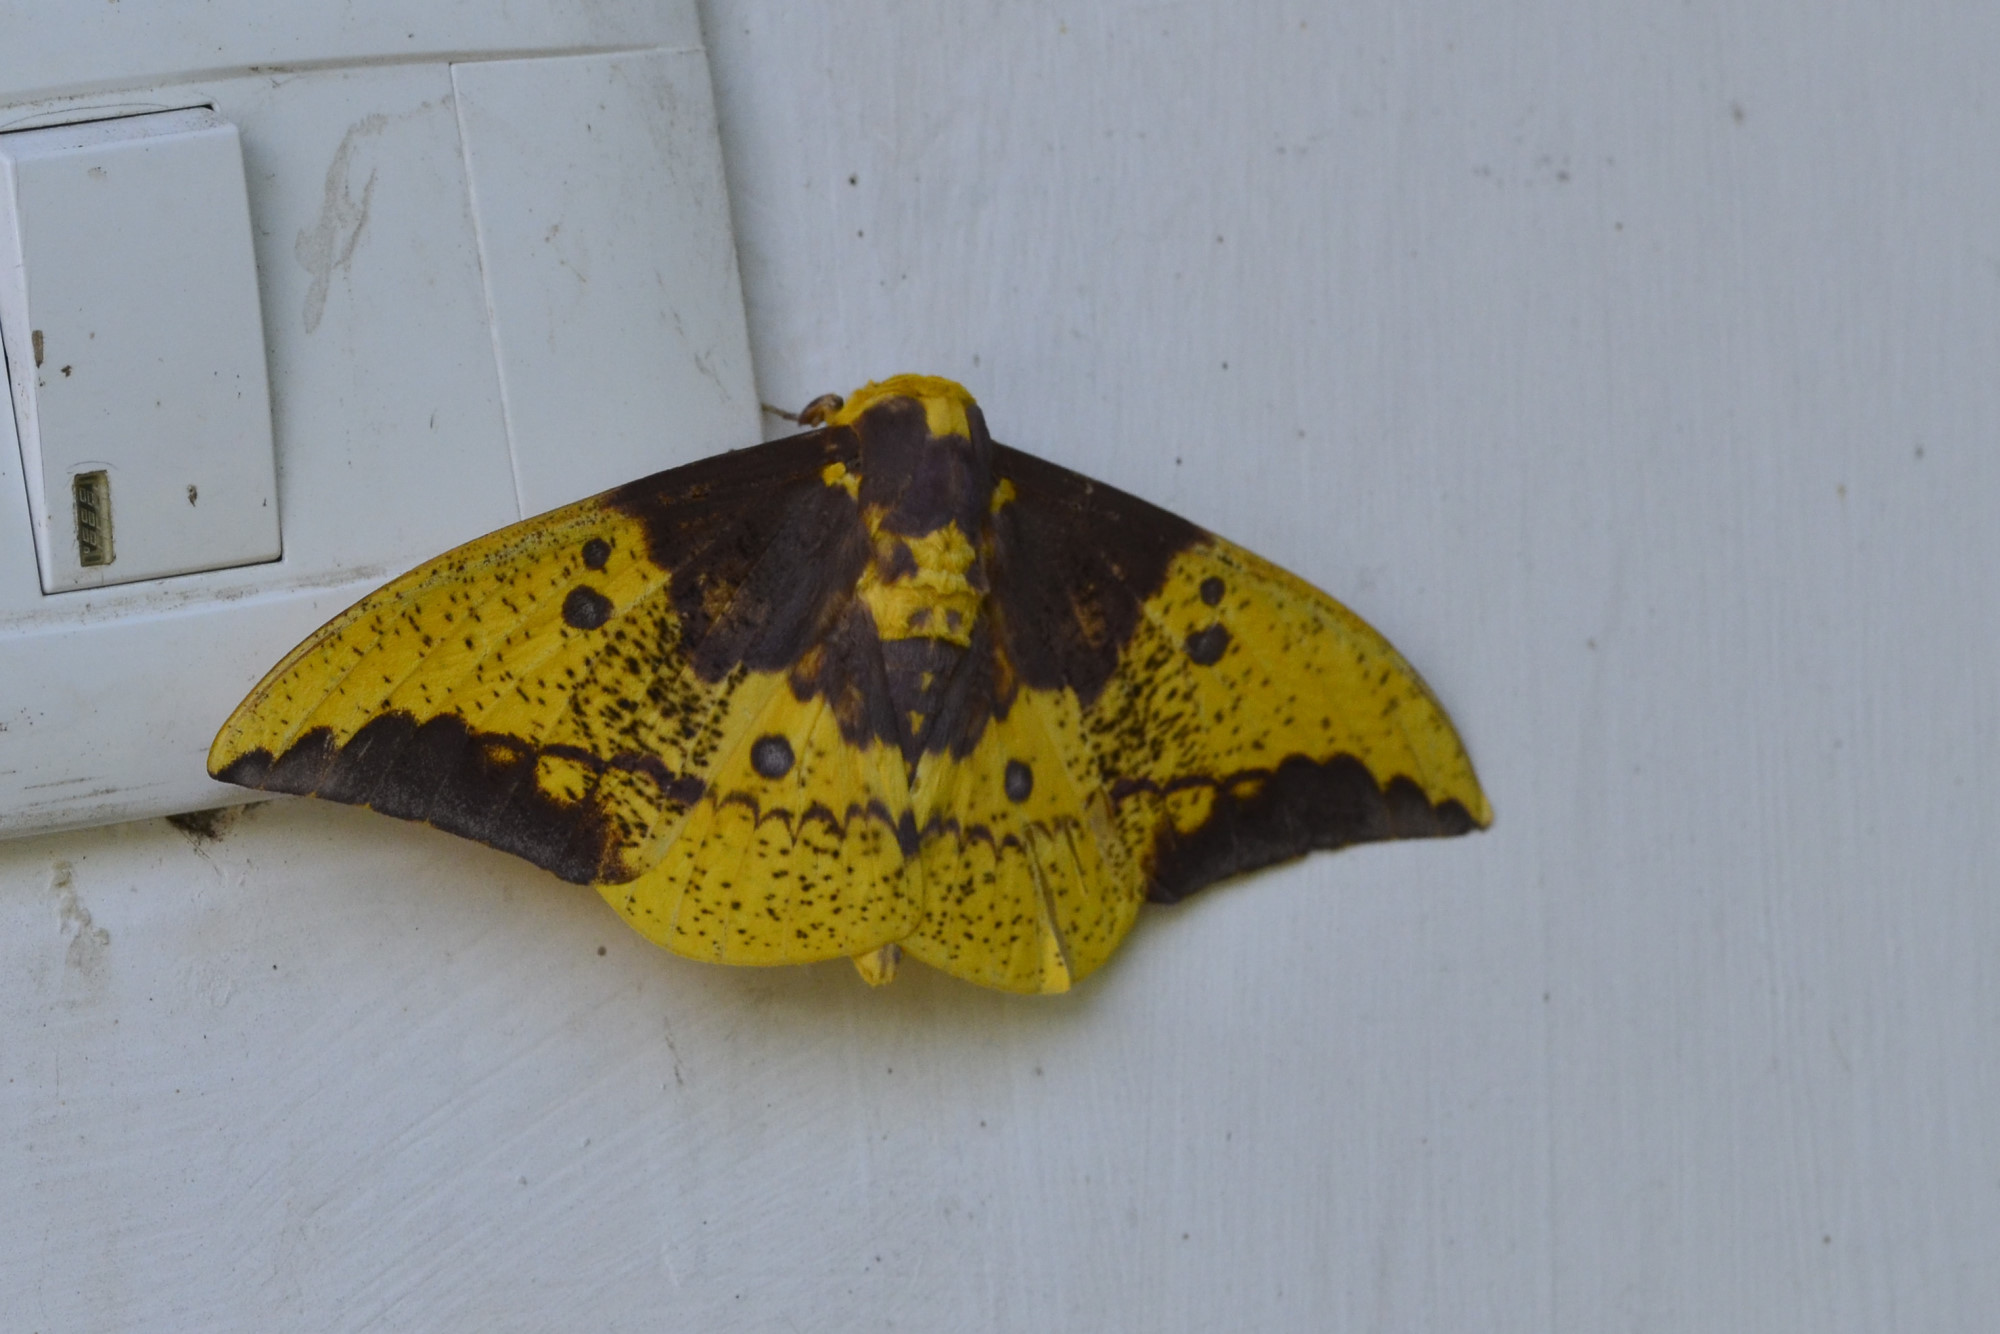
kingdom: Animalia
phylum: Arthropoda
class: Insecta
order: Lepidoptera
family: Saturniidae
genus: Eacles
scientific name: Eacles imperialis
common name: Imperial moth
